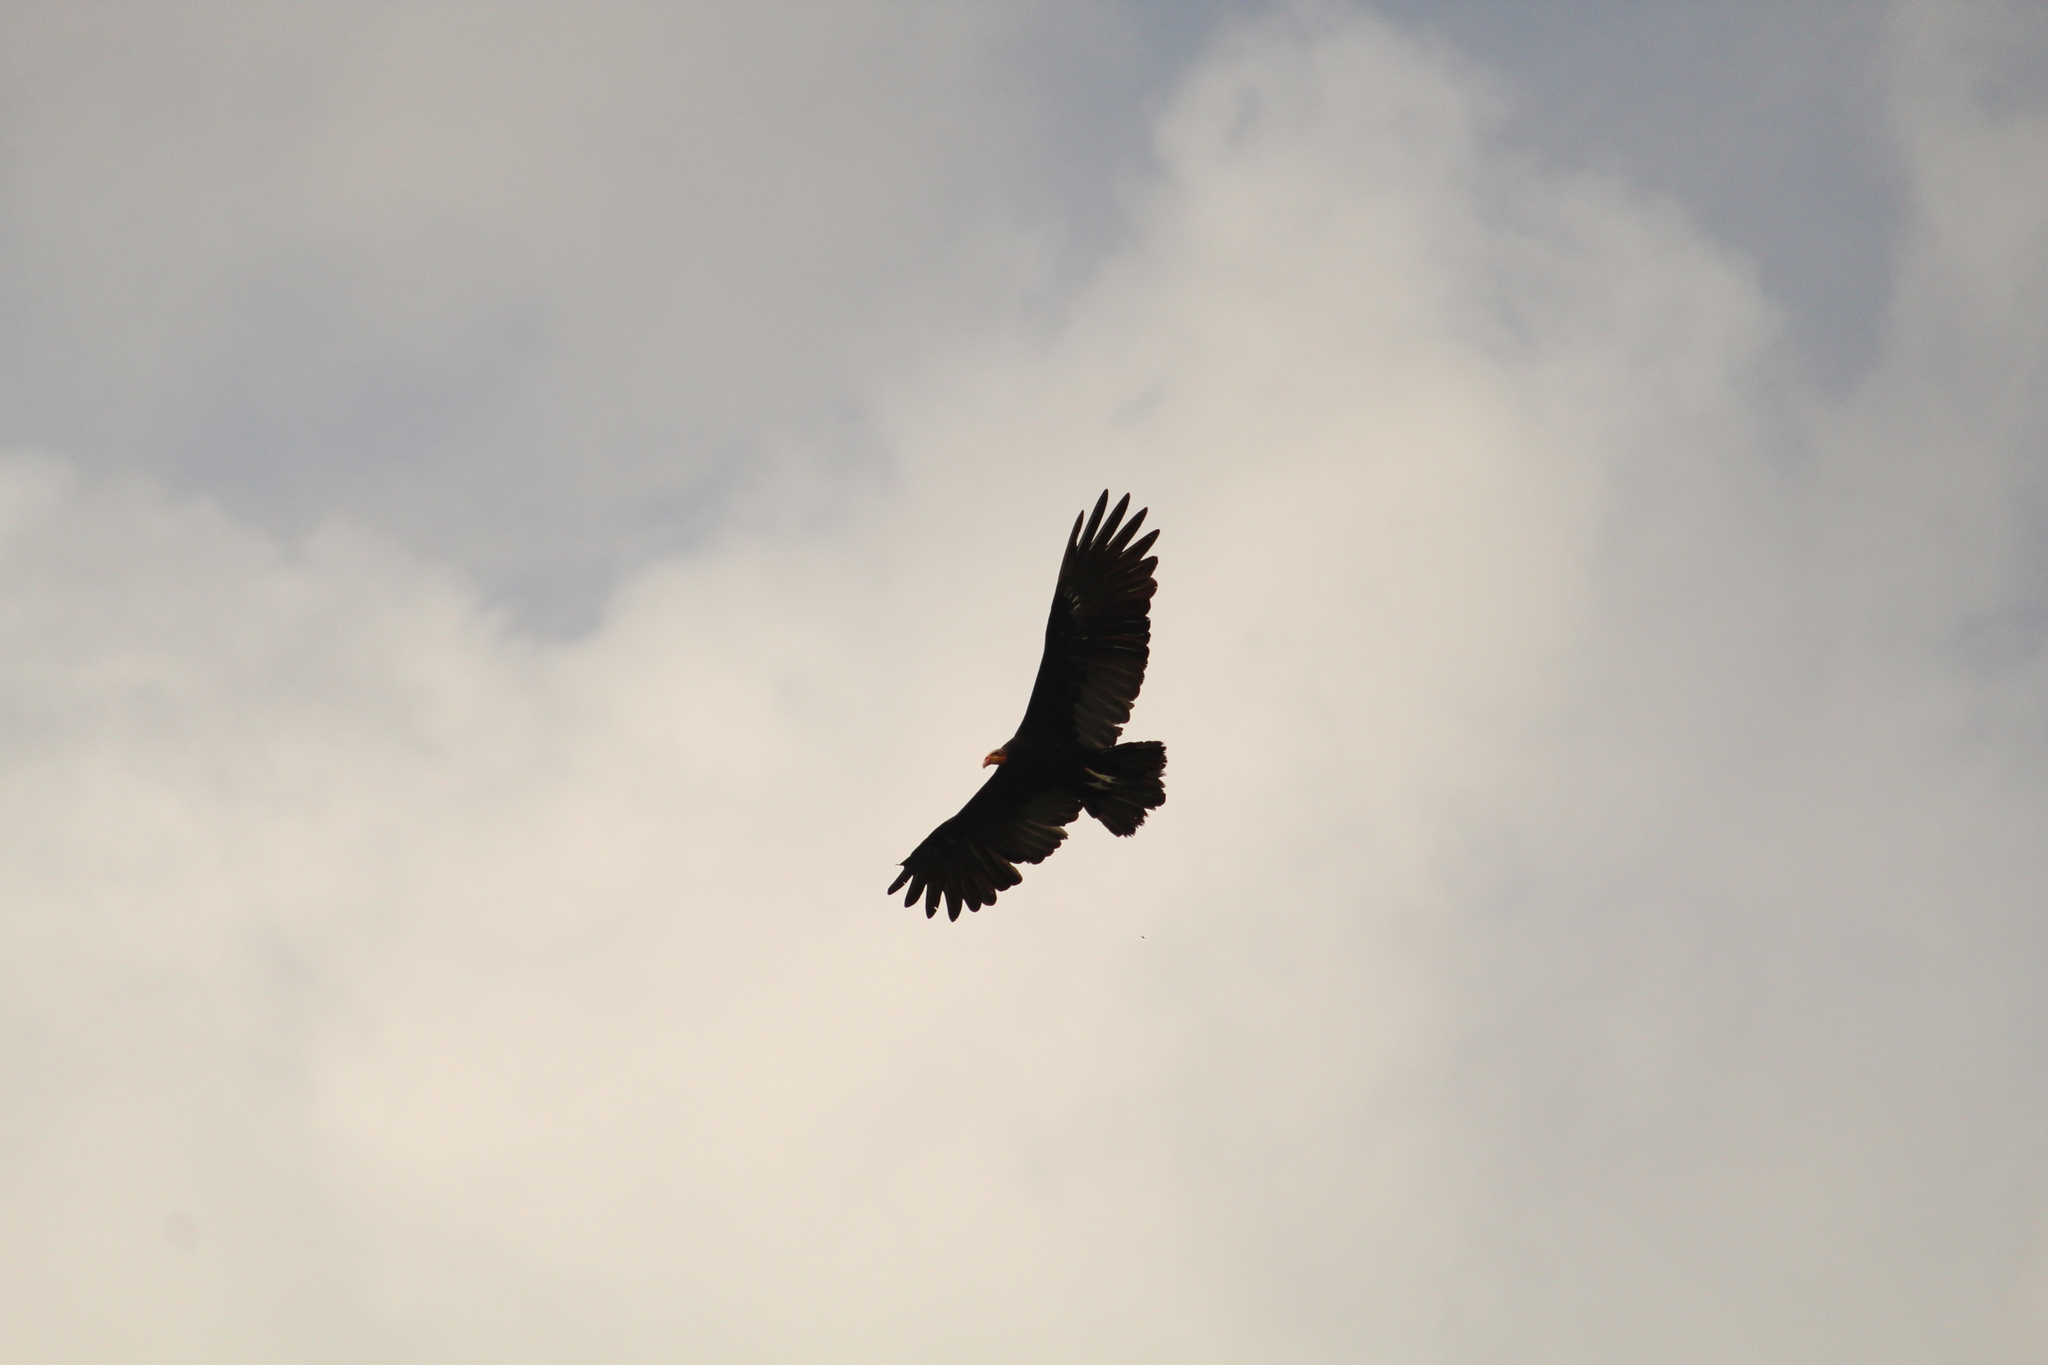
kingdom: Animalia
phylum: Chordata
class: Aves
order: Accipitriformes
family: Cathartidae
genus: Cathartes
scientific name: Cathartes burrovianus
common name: Lesser yellow-headed vulture
